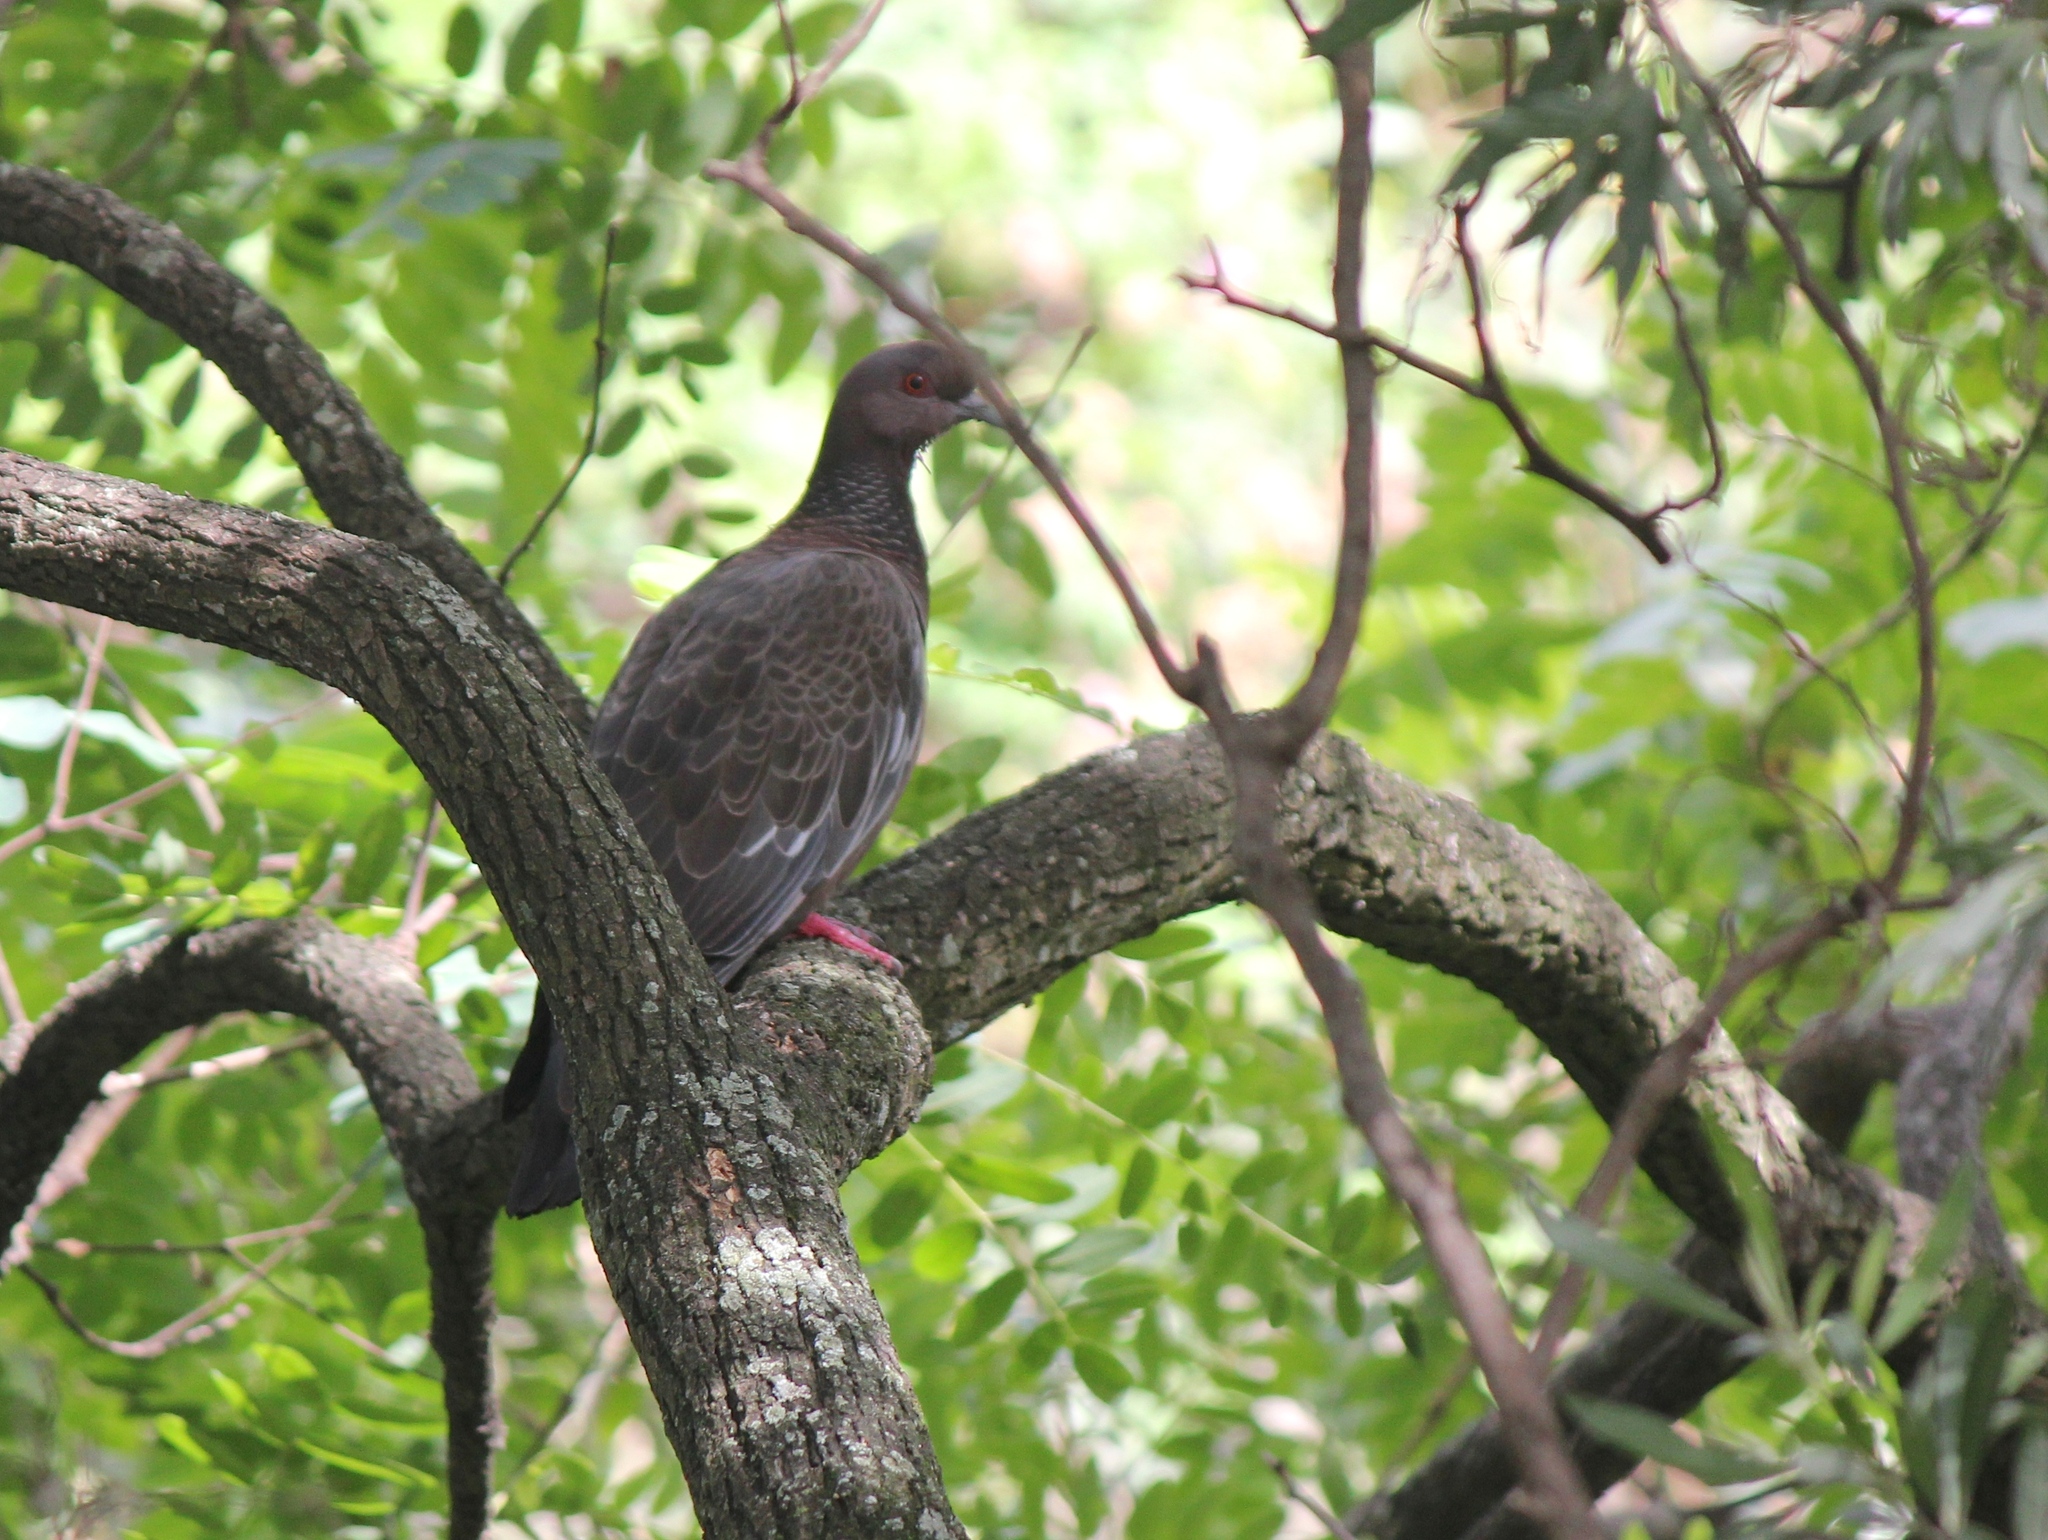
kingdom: Animalia
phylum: Chordata
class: Aves
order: Columbiformes
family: Columbidae
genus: Patagioenas
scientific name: Patagioenas picazuro
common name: Picazuro pigeon
